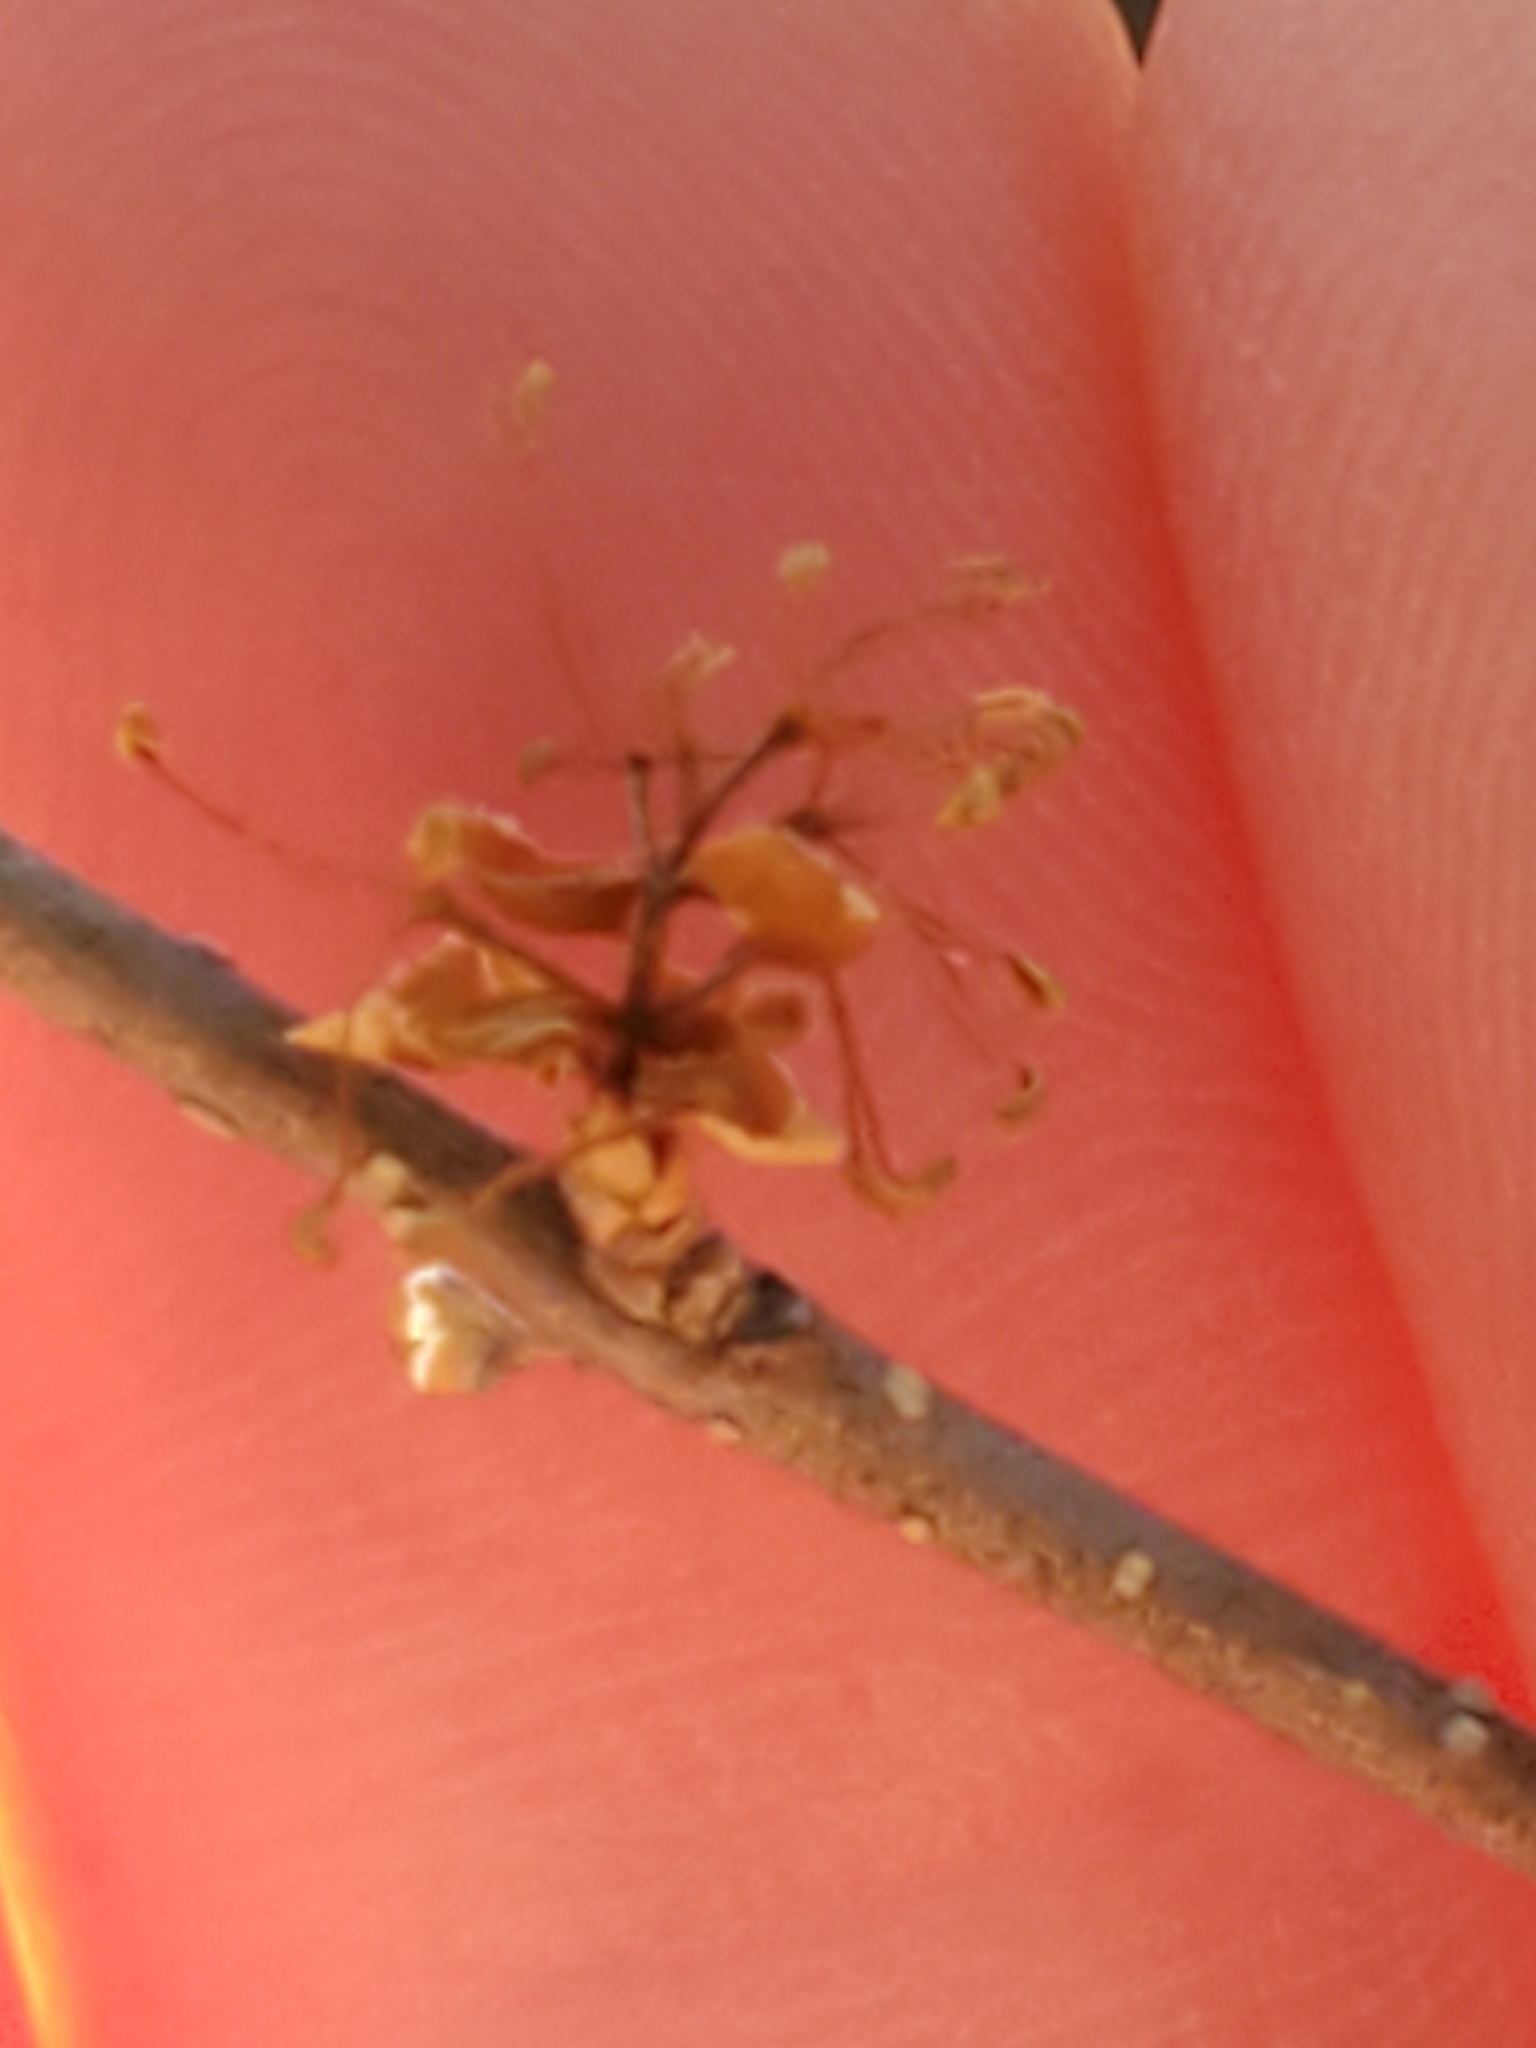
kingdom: Plantae
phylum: Tracheophyta
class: Magnoliopsida
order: Lamiales
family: Oleaceae
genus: Forestiera
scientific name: Forestiera reticulata
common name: Netleaf swamp-privet
